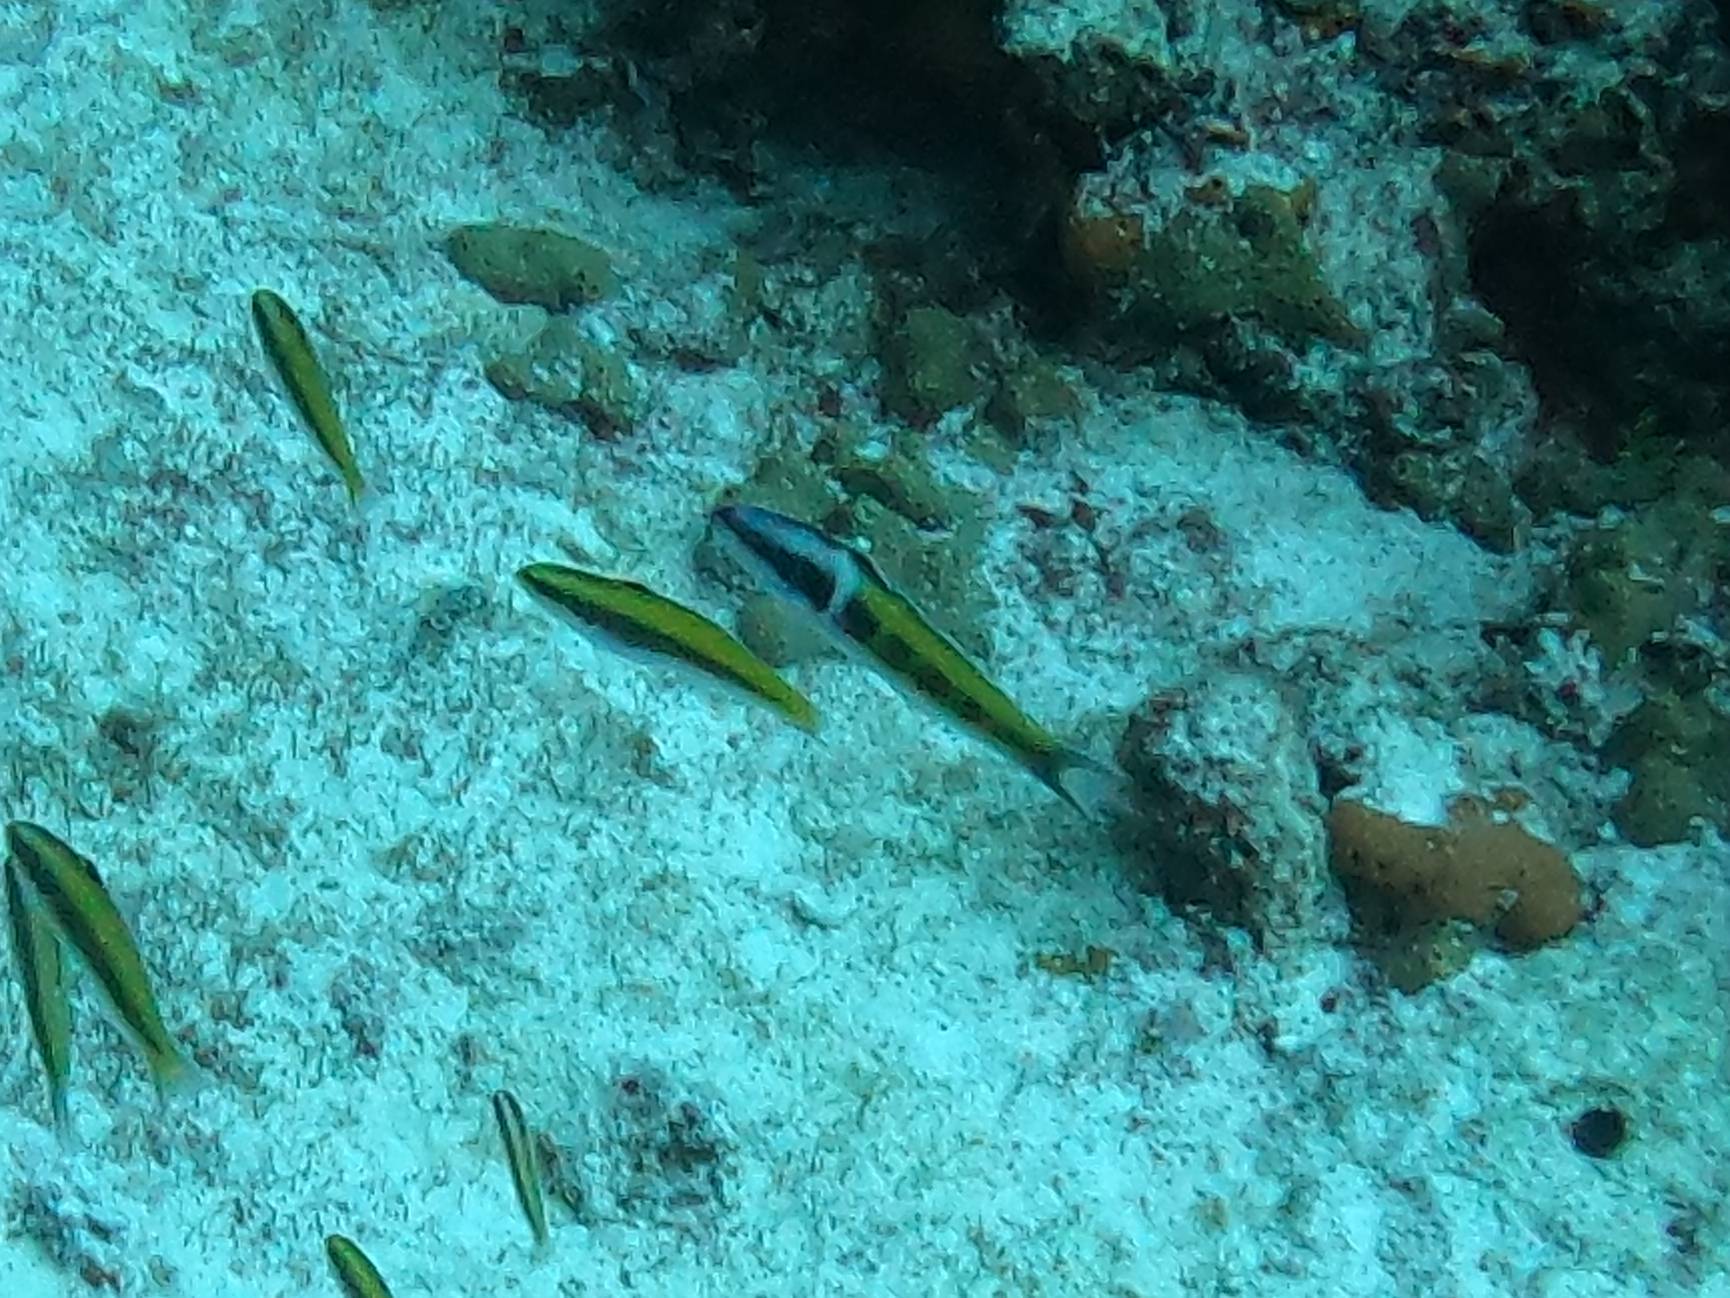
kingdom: Animalia
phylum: Chordata
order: Perciformes
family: Labridae
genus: Thalassoma
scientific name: Thalassoma bifasciatum
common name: Bluehead wrasse
